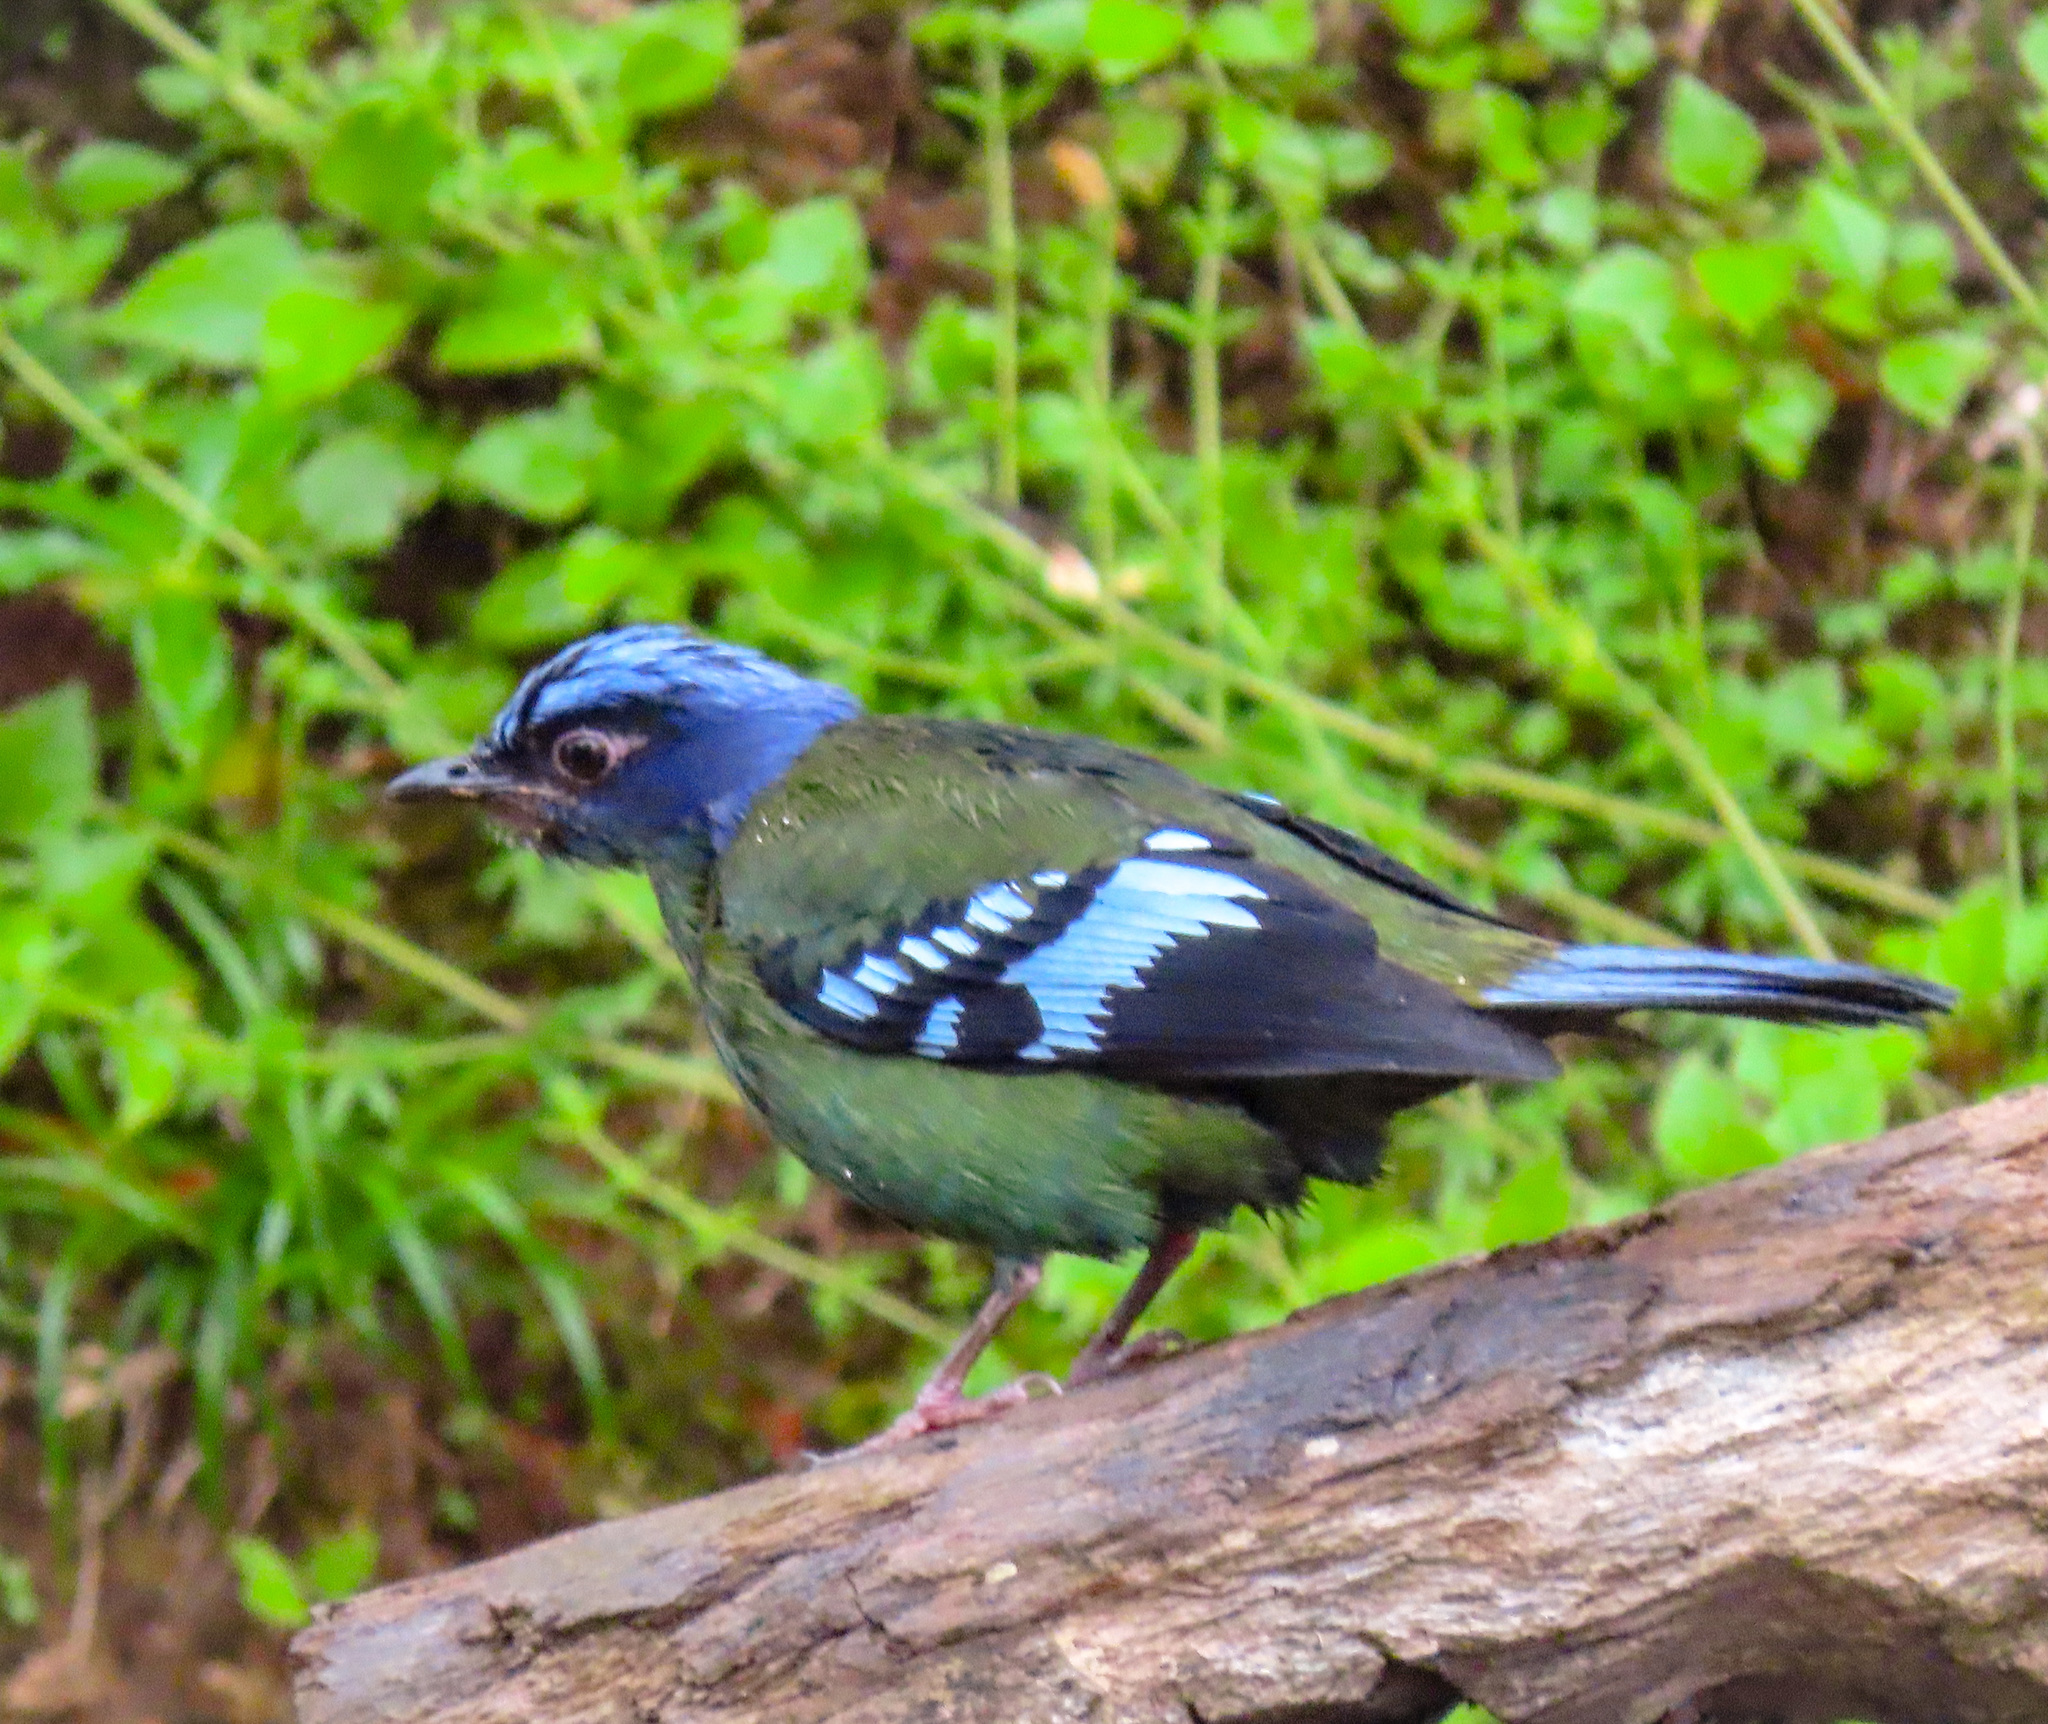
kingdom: Animalia
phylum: Chordata
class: Aves
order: Passeriformes
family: Turdidae
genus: Cochoa
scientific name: Cochoa viridis
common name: Green cochoa
